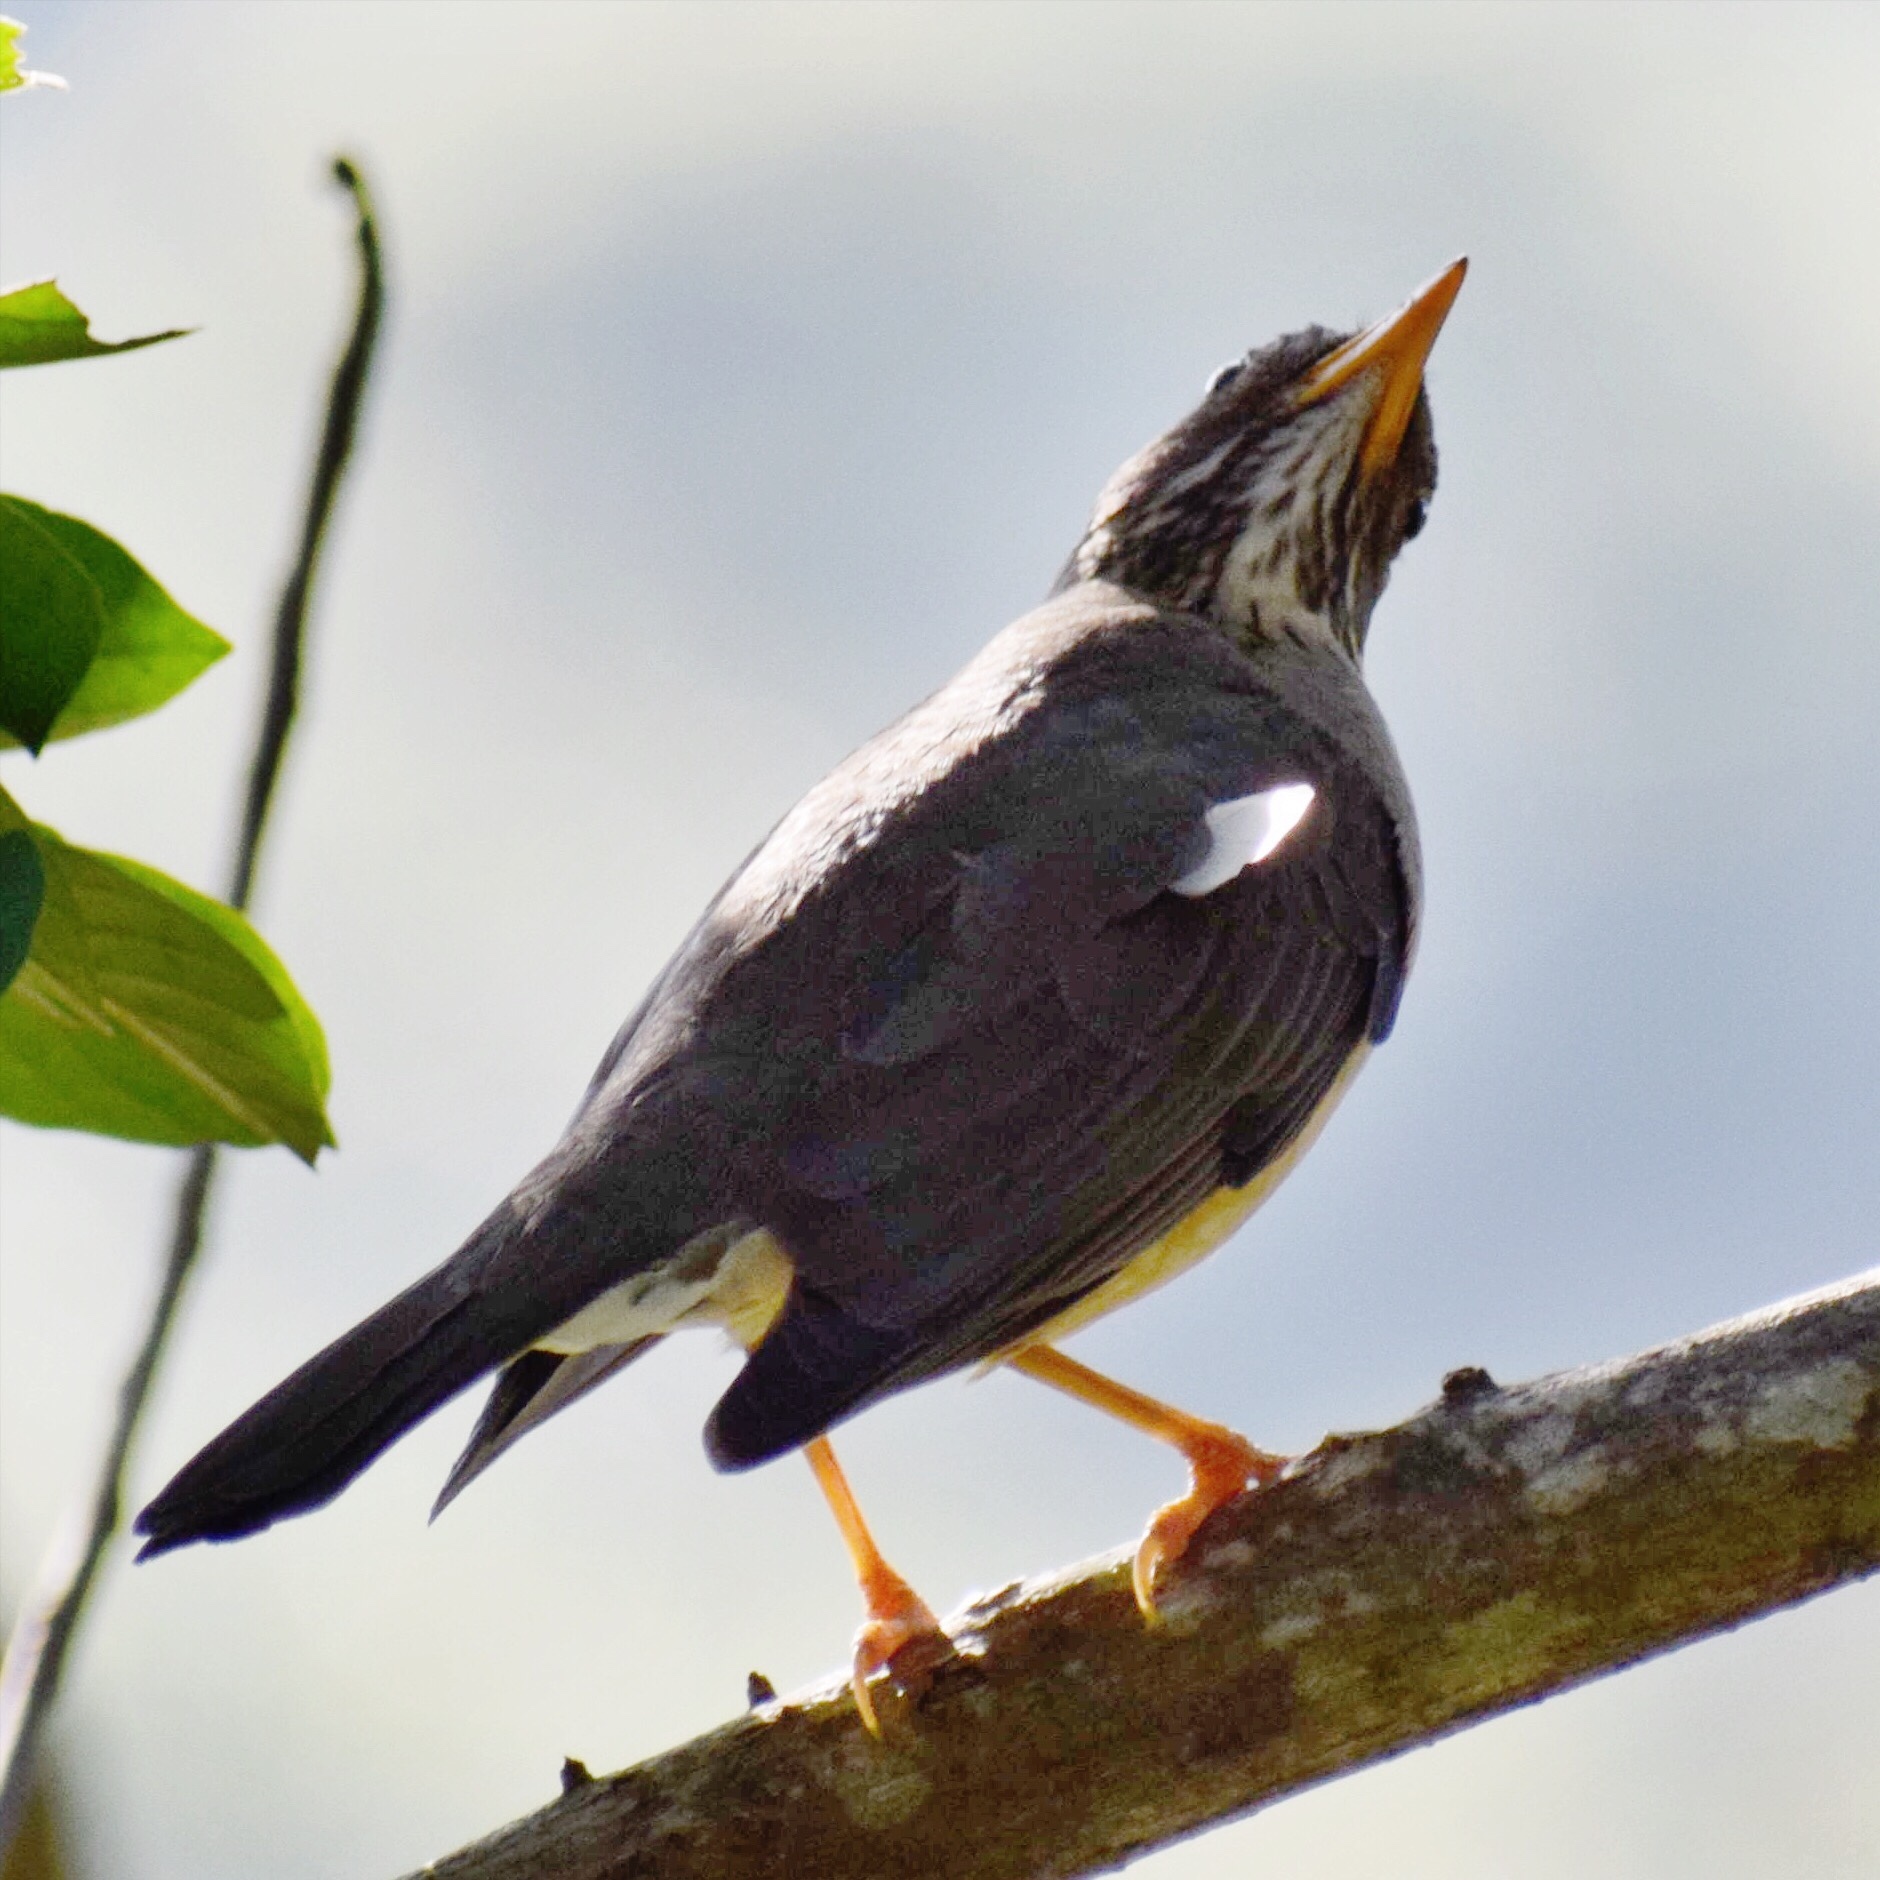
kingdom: Animalia
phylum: Chordata
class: Aves
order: Passeriformes
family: Turdidae
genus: Turdus
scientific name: Turdus olivaceus
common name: Olive thrush
